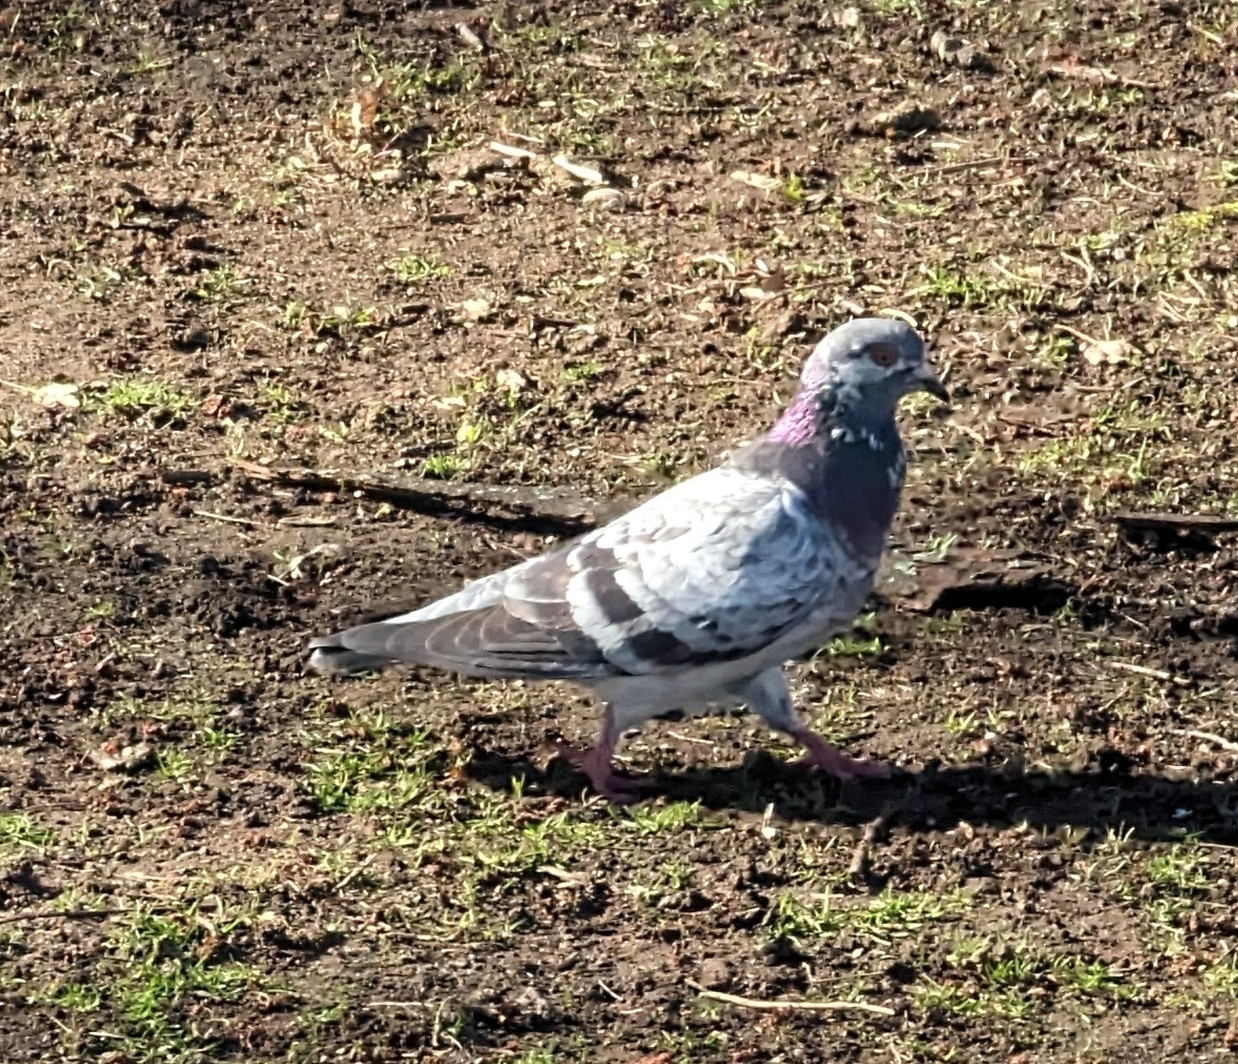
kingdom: Animalia
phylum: Chordata
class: Aves
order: Columbiformes
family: Columbidae
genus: Columba
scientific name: Columba livia
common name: Rock pigeon
